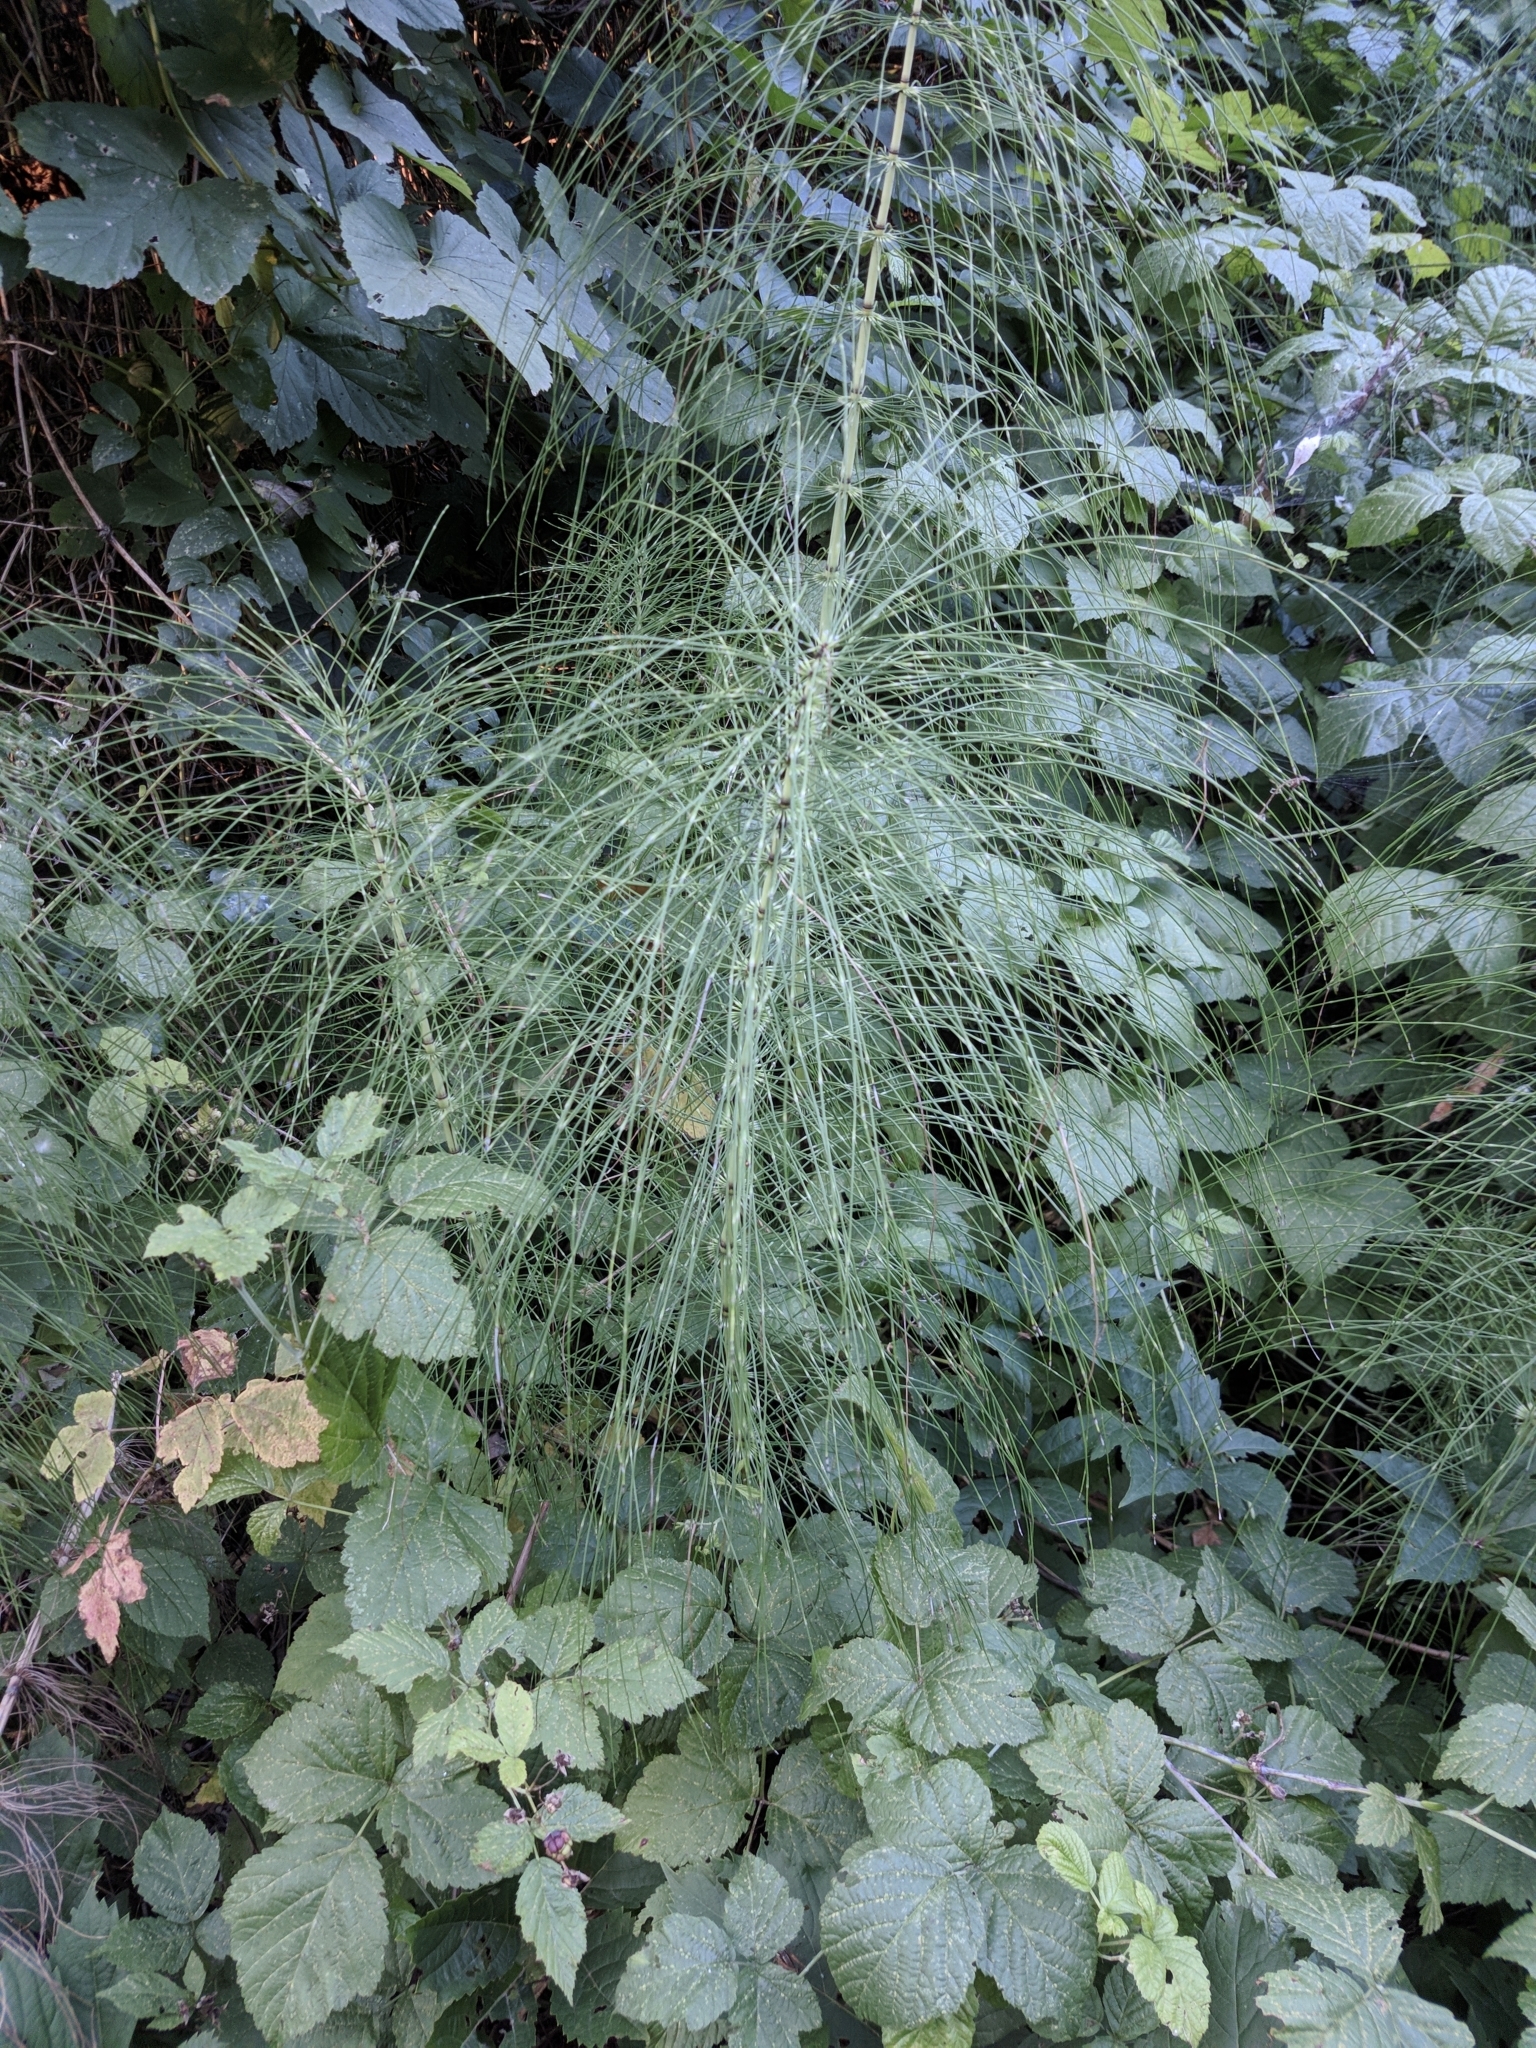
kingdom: Plantae
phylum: Tracheophyta
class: Polypodiopsida
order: Equisetales
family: Equisetaceae
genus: Equisetum
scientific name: Equisetum telmateia
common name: Great horsetail
